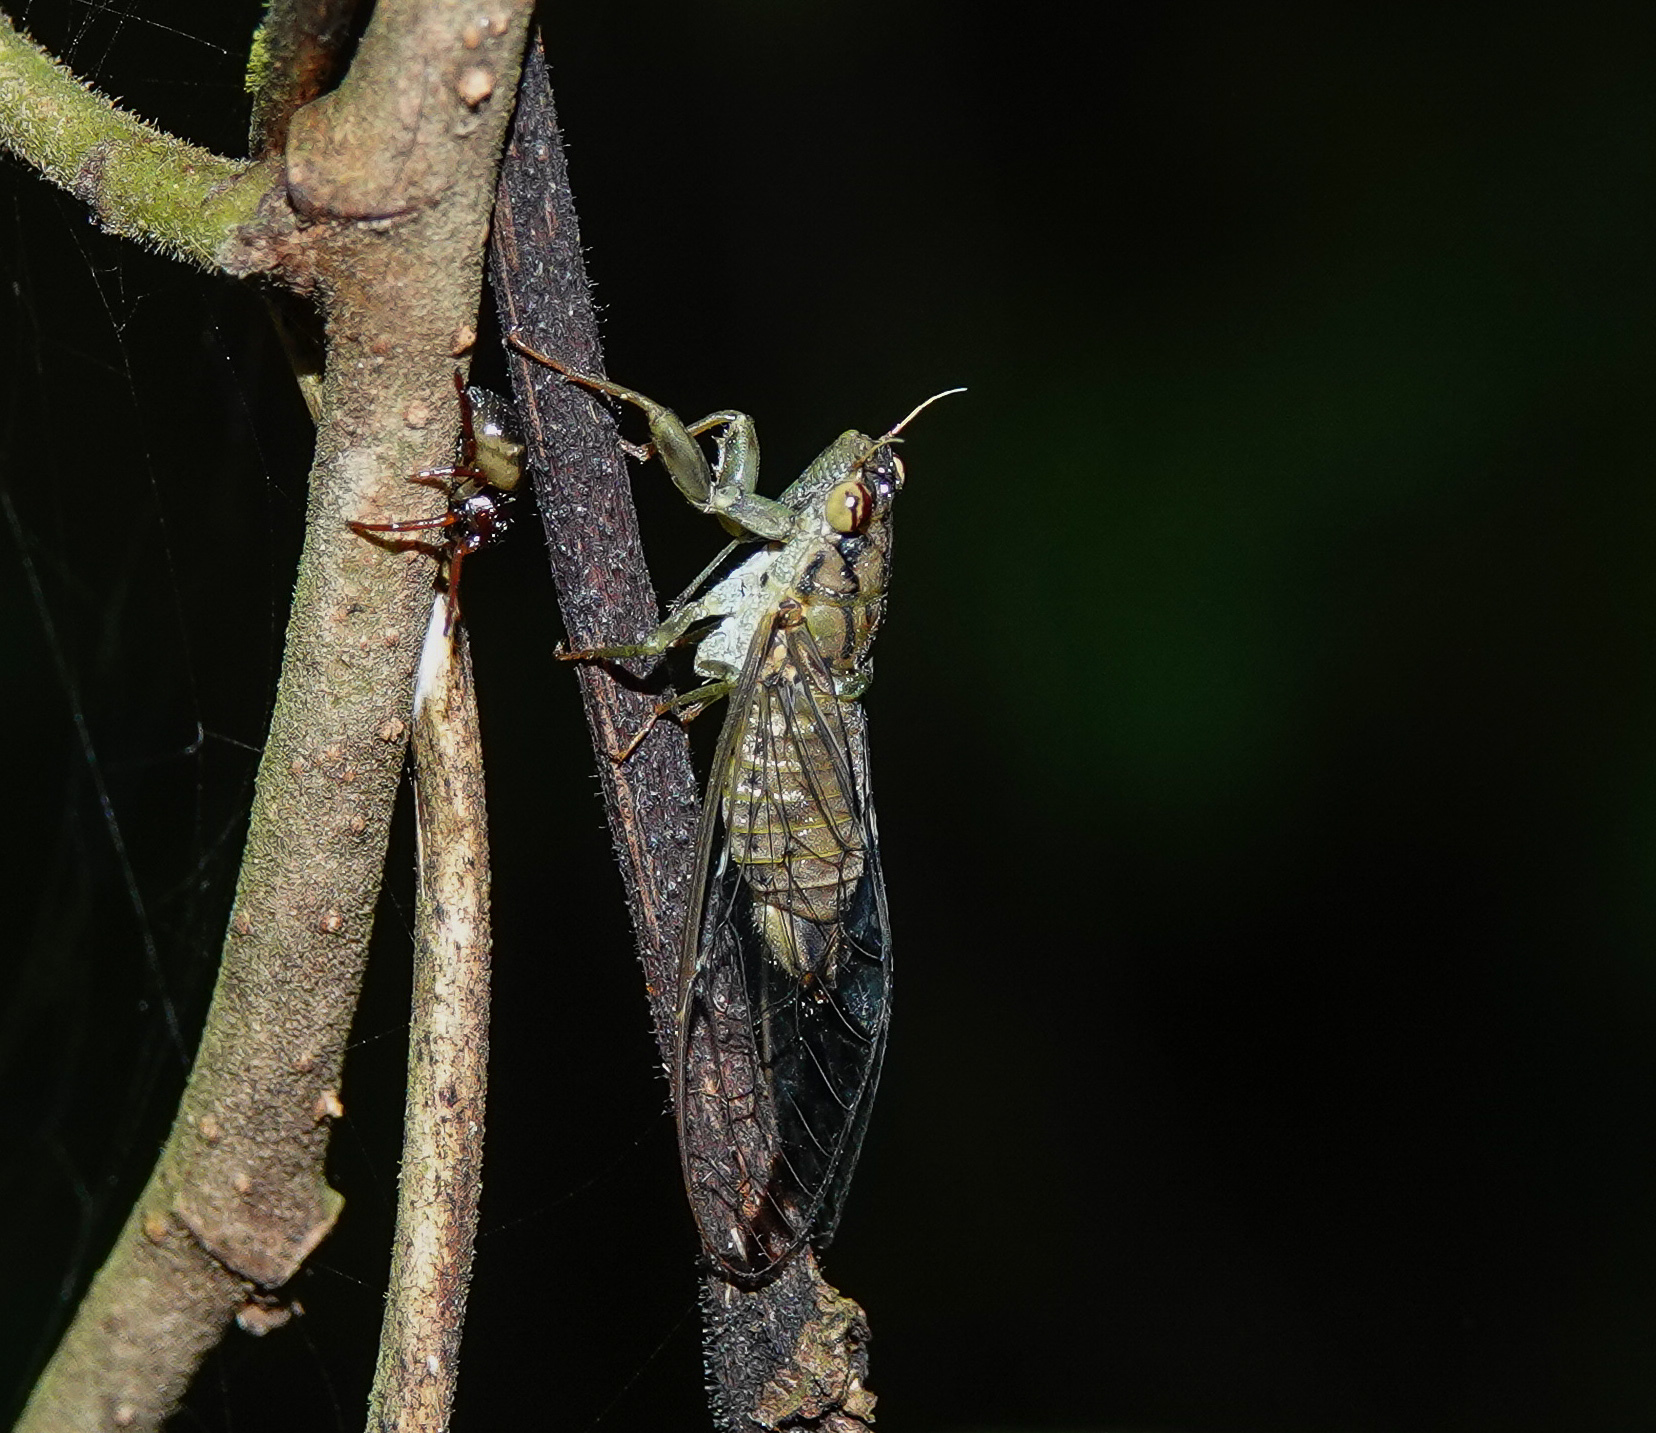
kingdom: Animalia
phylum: Arthropoda
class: Insecta
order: Hemiptera
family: Cicadidae
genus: Rustia
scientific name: Rustia dentivitta
